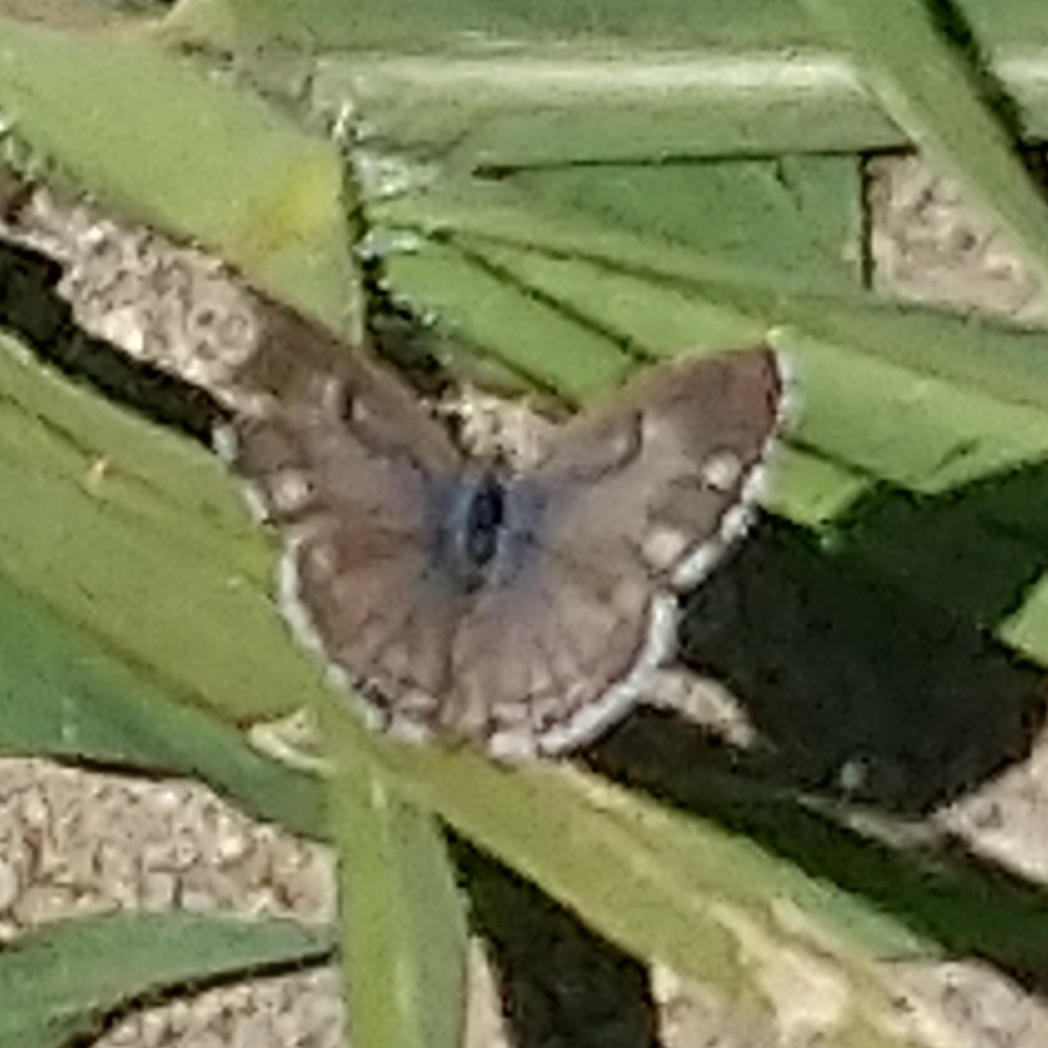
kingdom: Animalia
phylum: Arthropoda
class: Insecta
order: Lepidoptera
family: Lycaenidae
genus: Cacyreus
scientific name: Cacyreus lingeus
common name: Bush bronze
